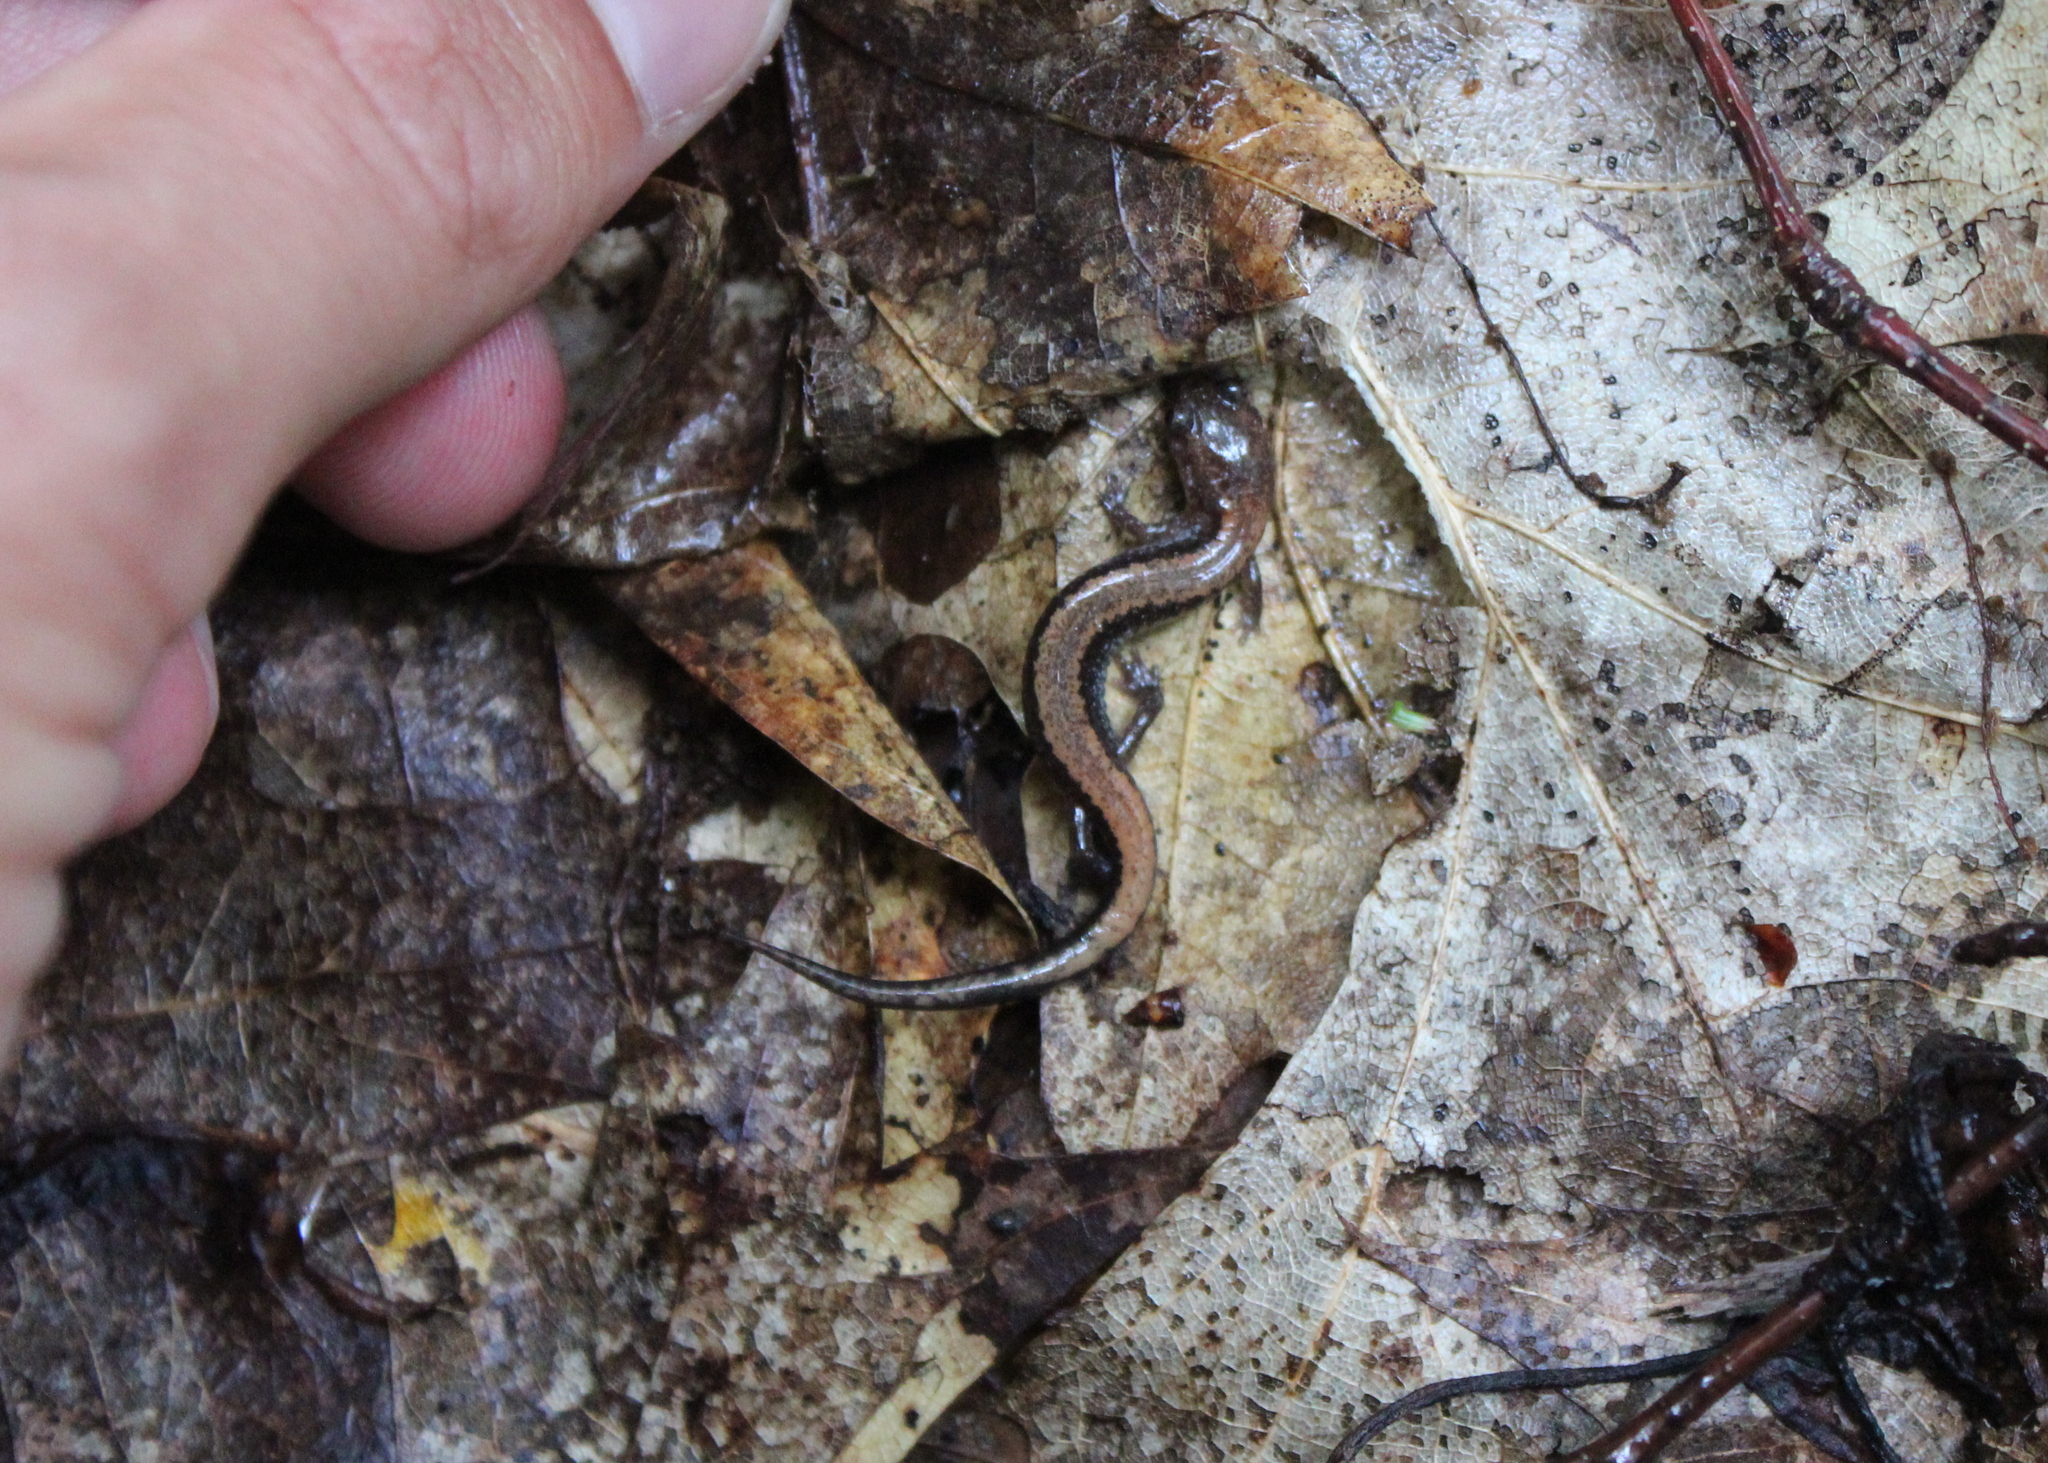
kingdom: Animalia
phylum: Chordata
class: Amphibia
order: Caudata
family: Plethodontidae
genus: Plethodon
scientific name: Plethodon cinereus
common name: Redback salamander
